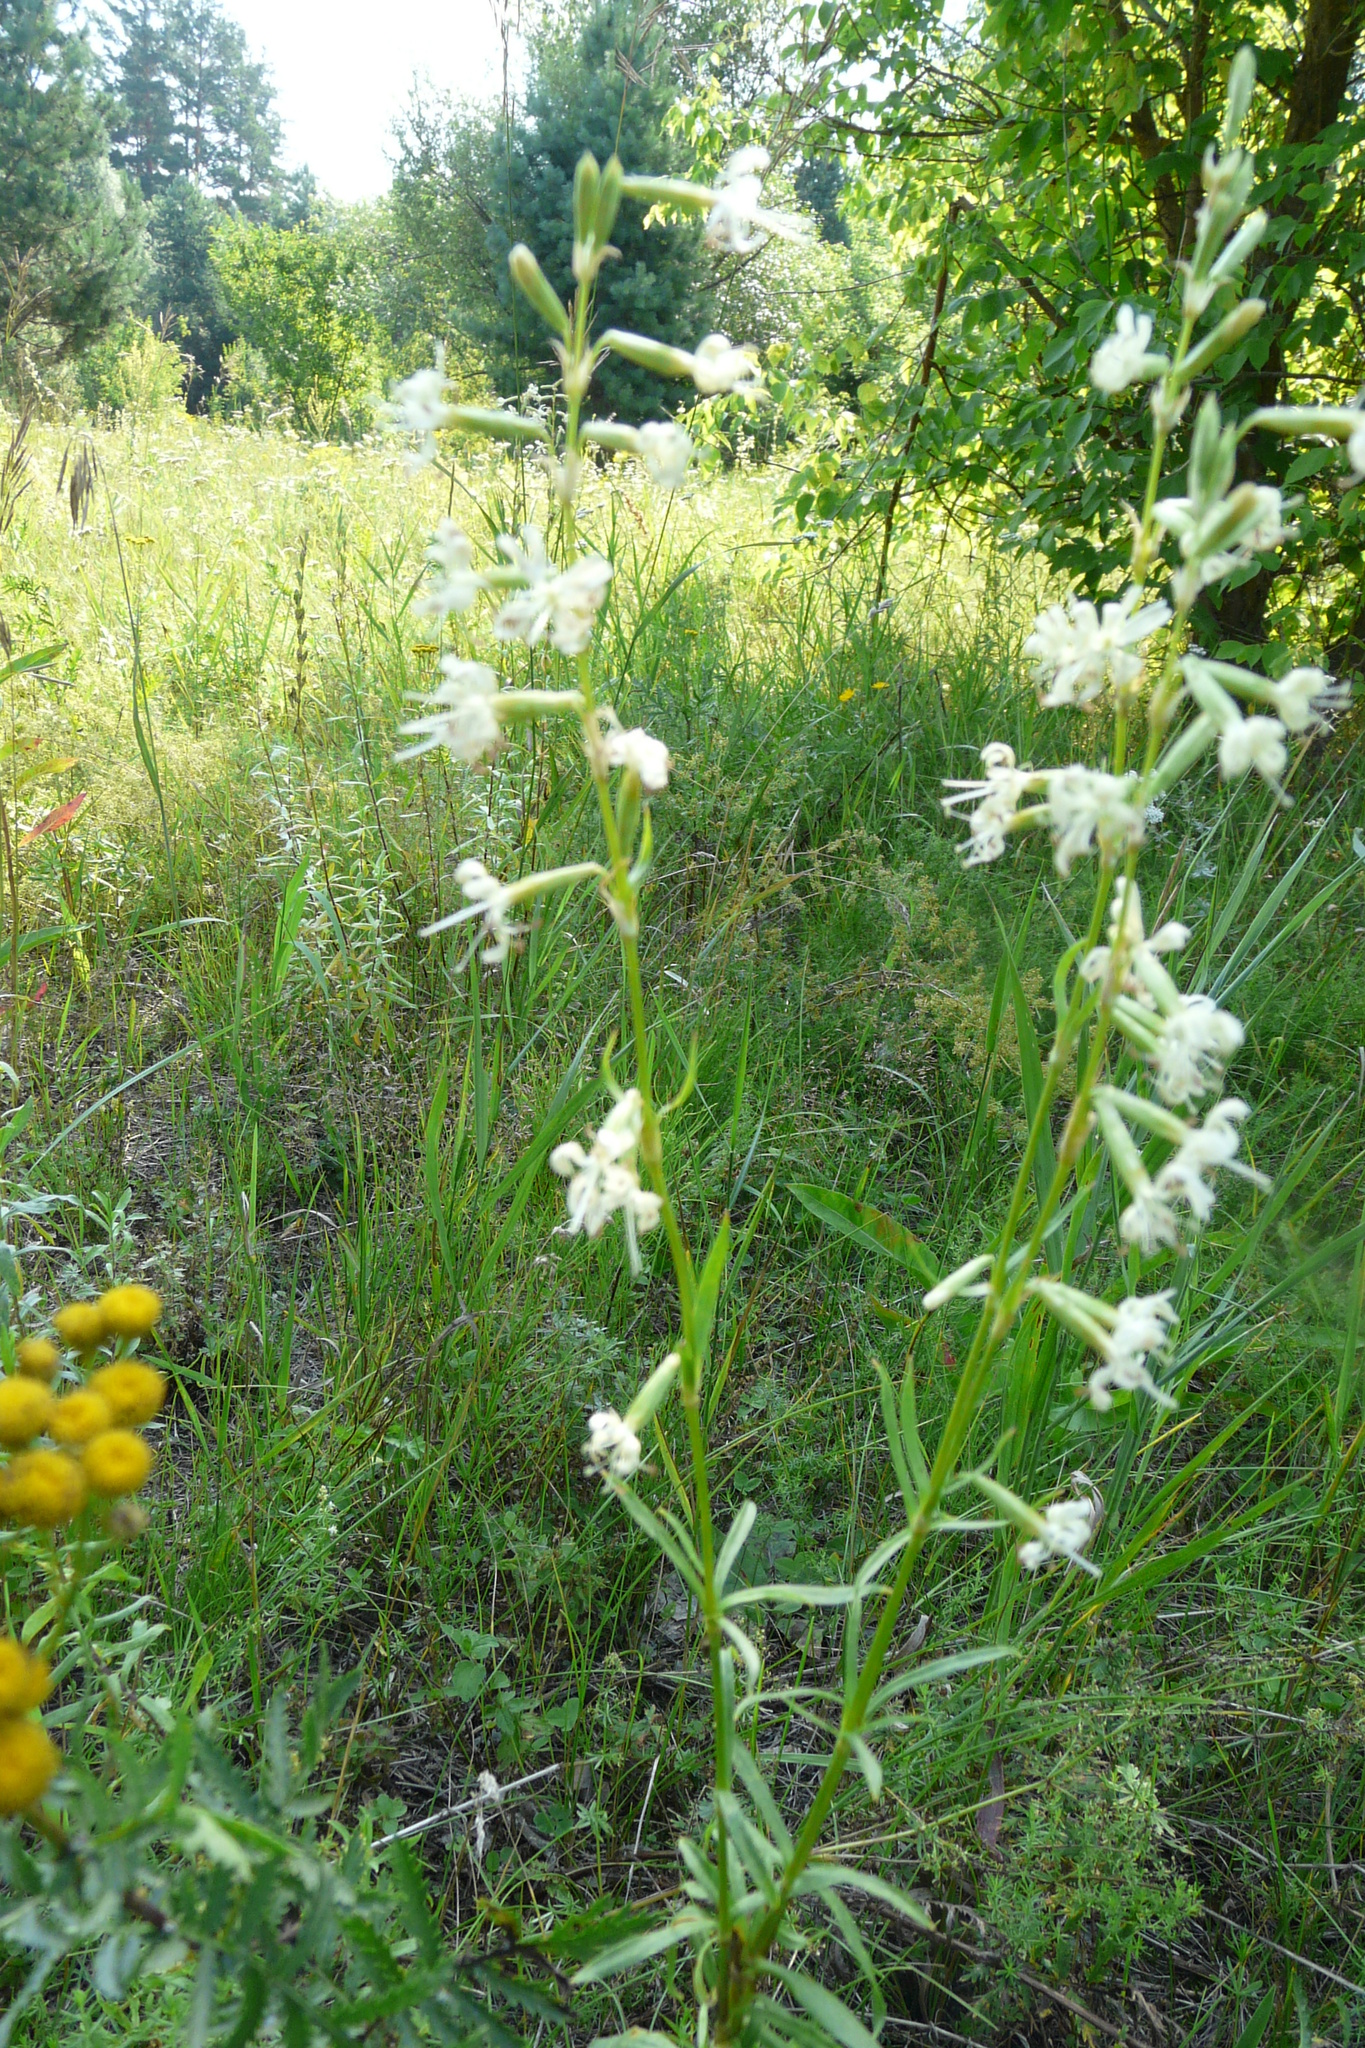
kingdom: Plantae
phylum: Tracheophyta
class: Magnoliopsida
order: Caryophyllales
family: Caryophyllaceae
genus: Silene
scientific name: Silene tatarica
